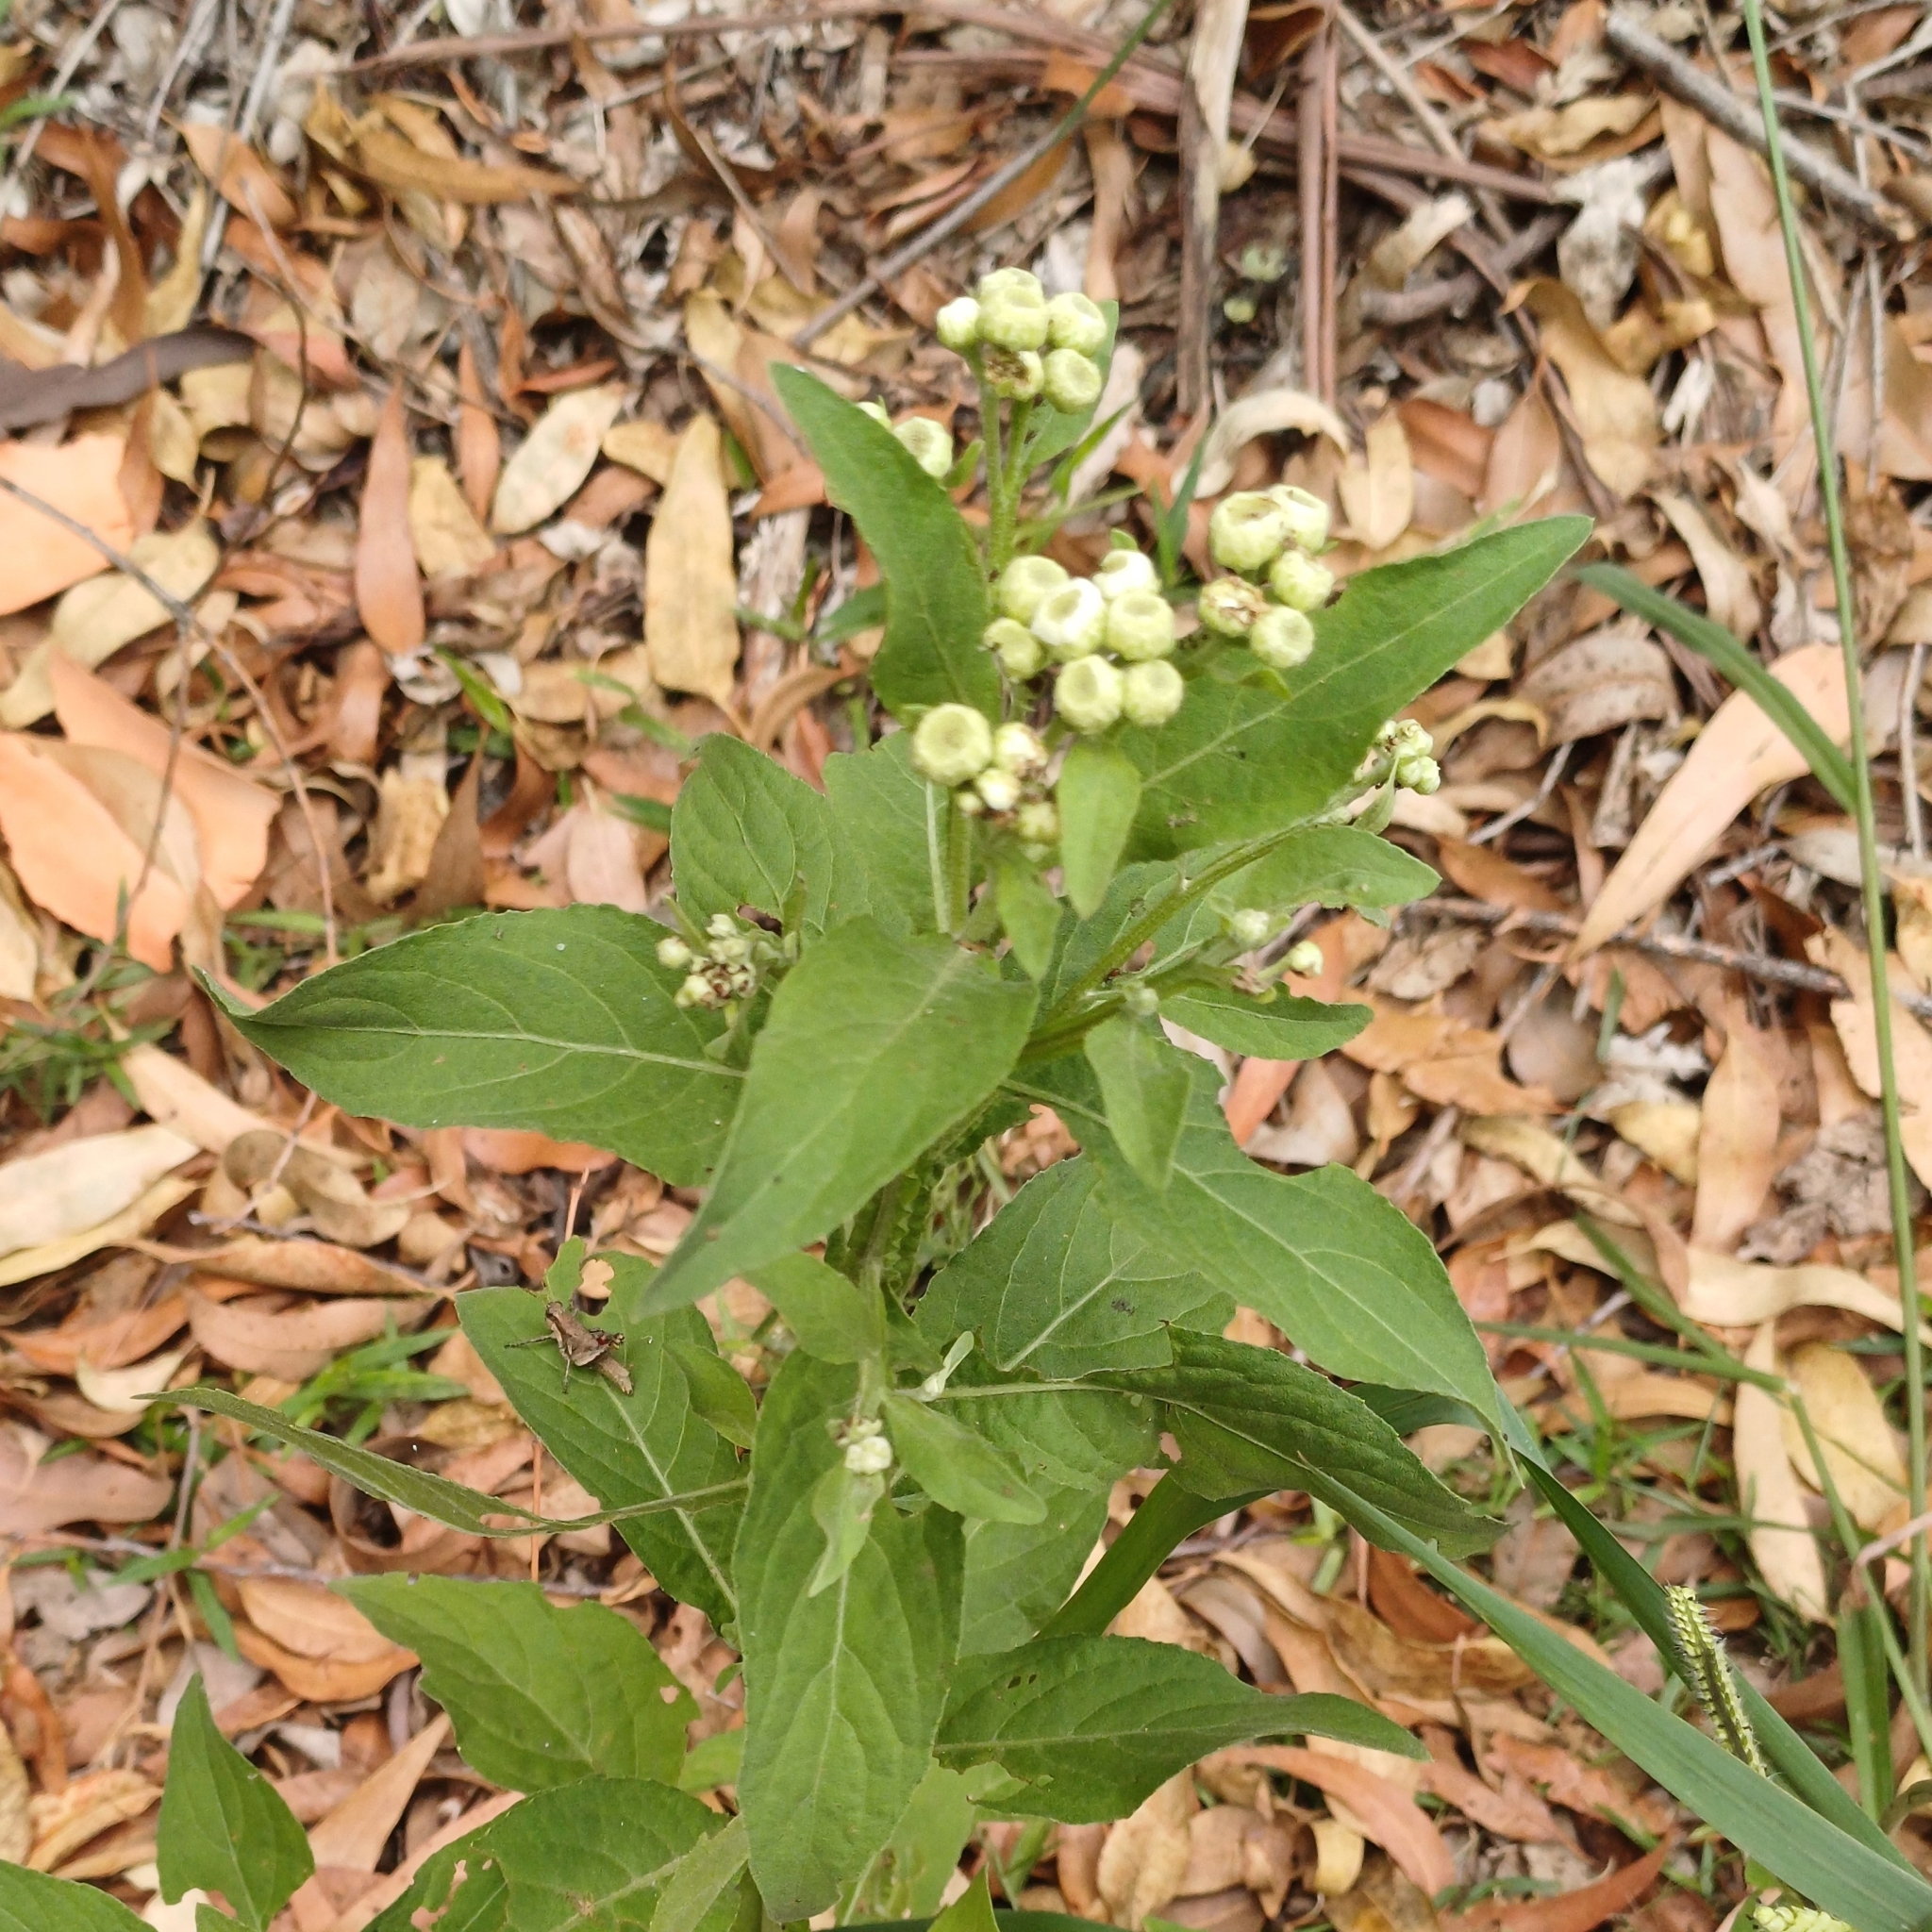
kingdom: Plantae
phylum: Tracheophyta
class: Magnoliopsida
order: Asterales
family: Asteraceae
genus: Pluchea
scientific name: Pluchea sagittalis
